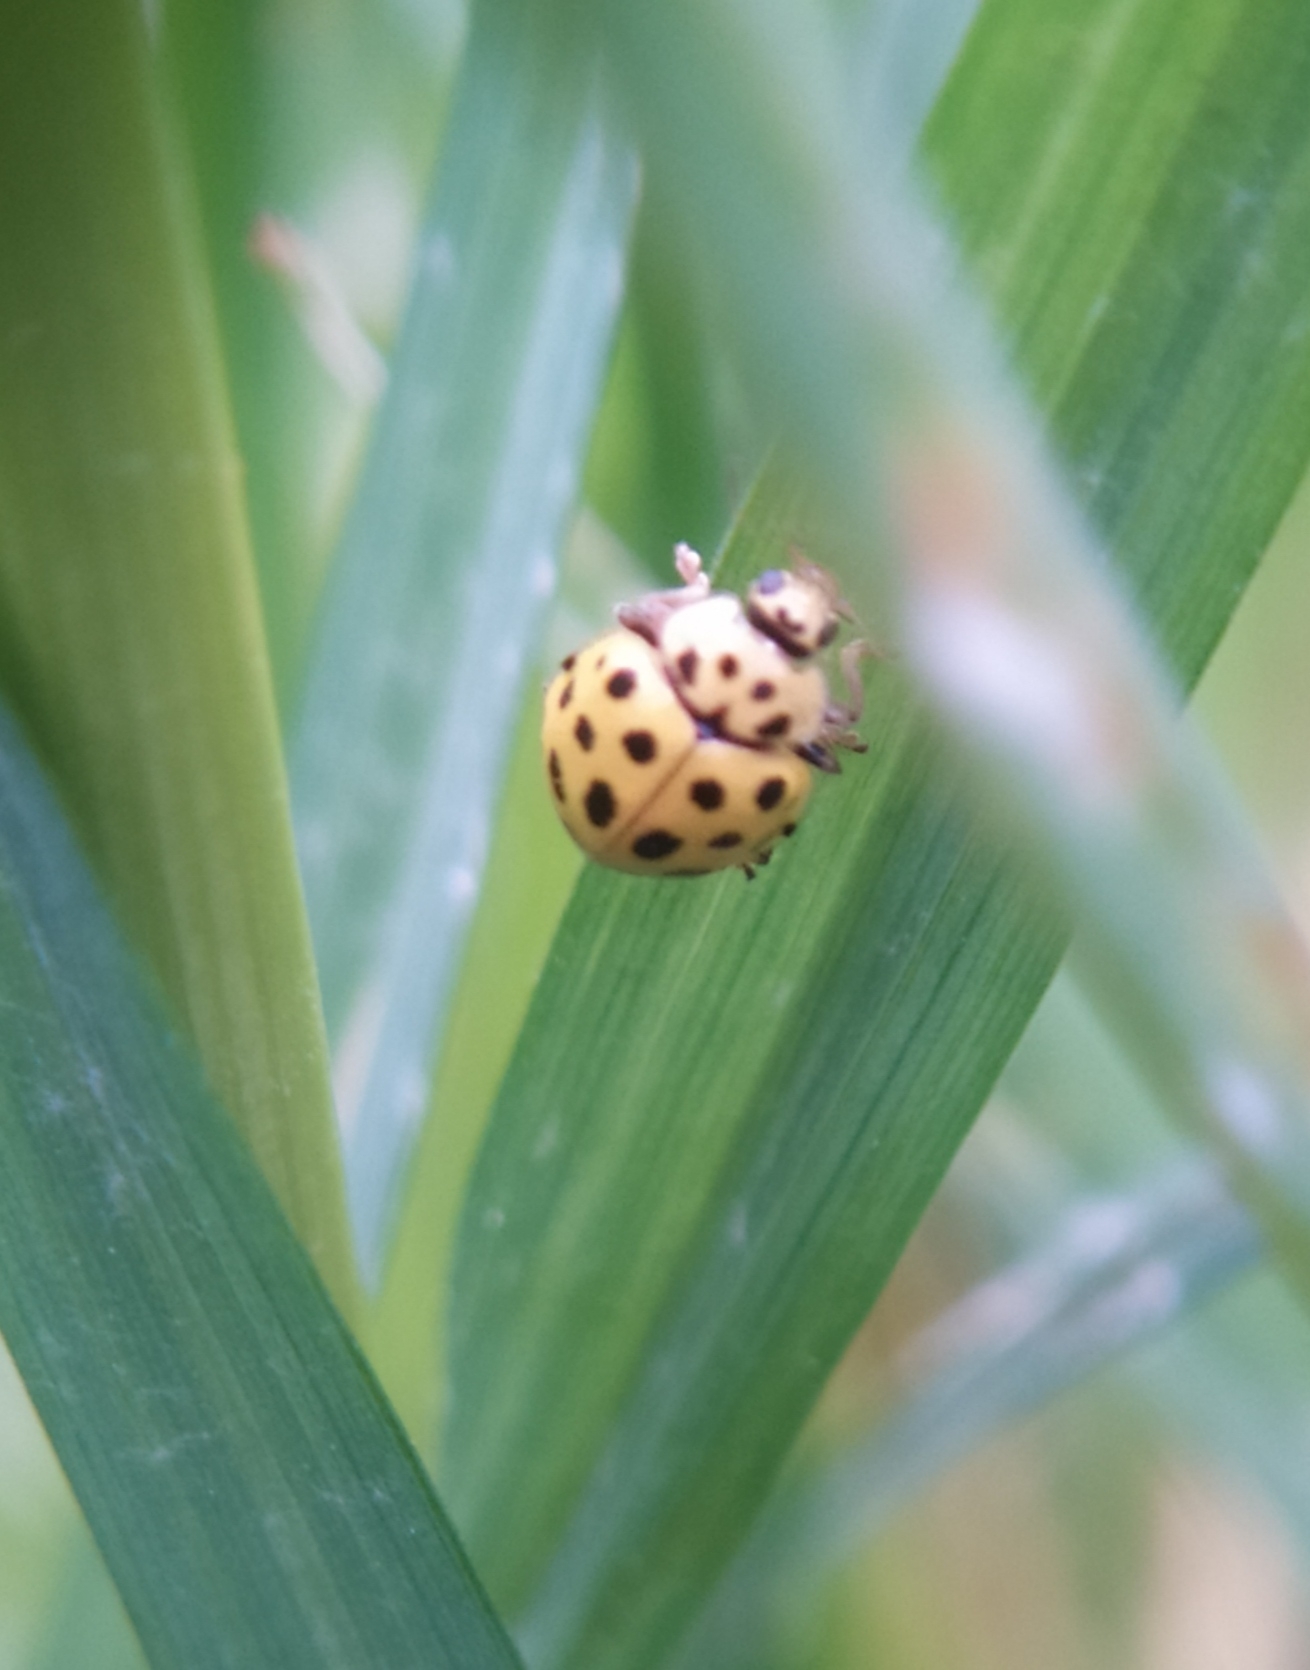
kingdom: Animalia
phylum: Arthropoda
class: Insecta
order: Coleoptera
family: Coccinellidae
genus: Psyllobora
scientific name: Psyllobora vigintiduopunctata
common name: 22-spot ladybird
